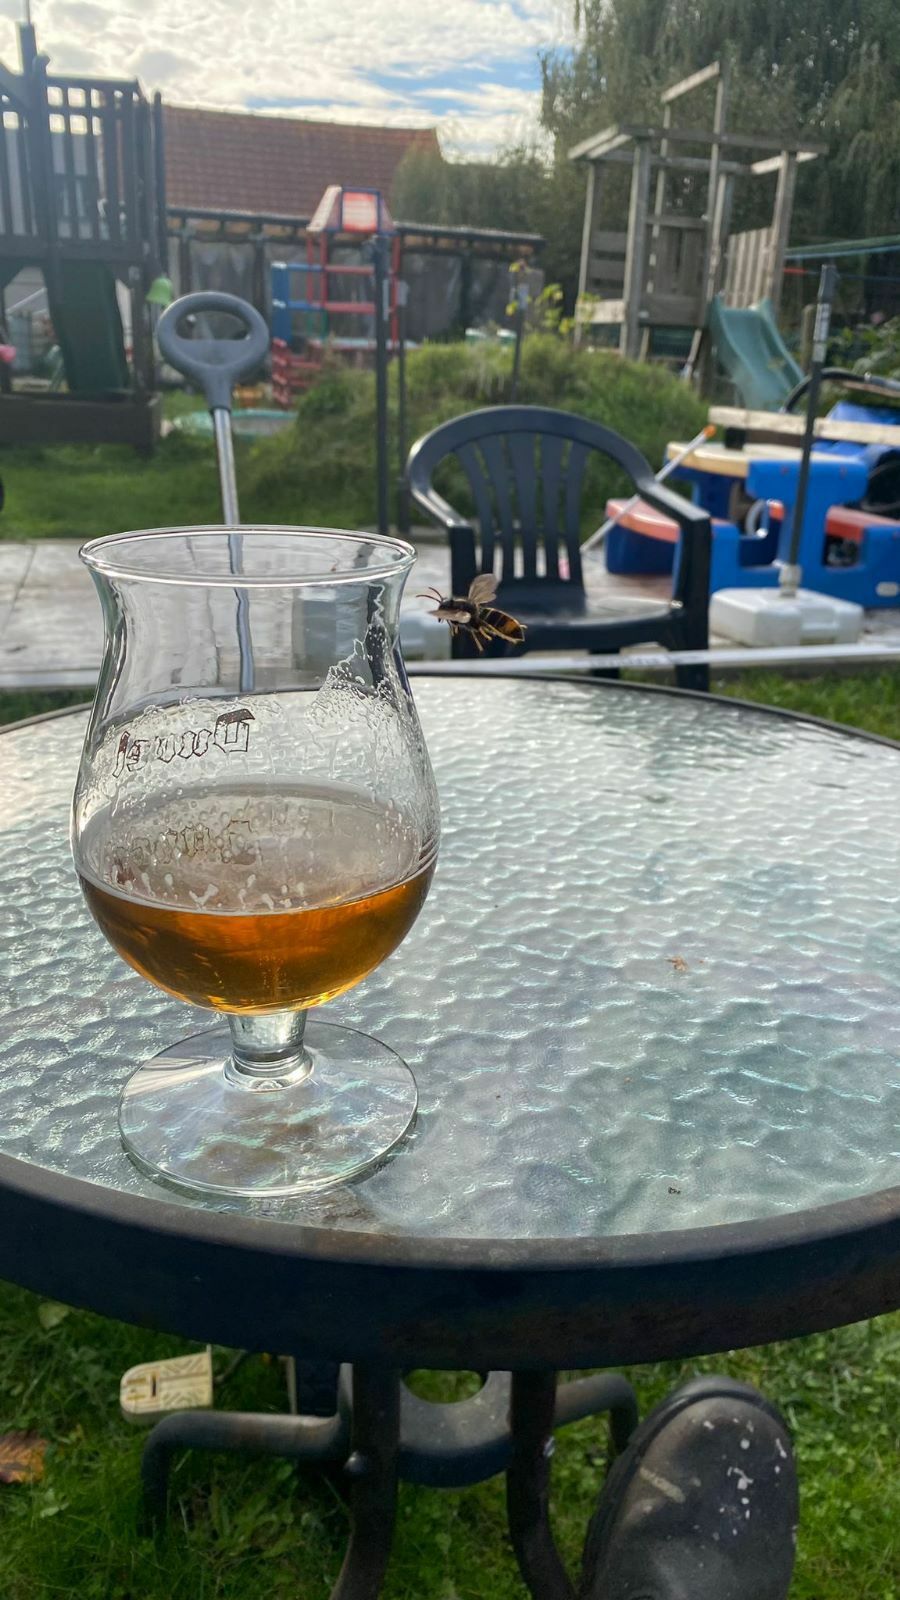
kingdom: Animalia
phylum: Arthropoda
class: Insecta
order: Hymenoptera
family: Vespidae
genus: Vespa
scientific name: Vespa velutina
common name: Asian hornet
